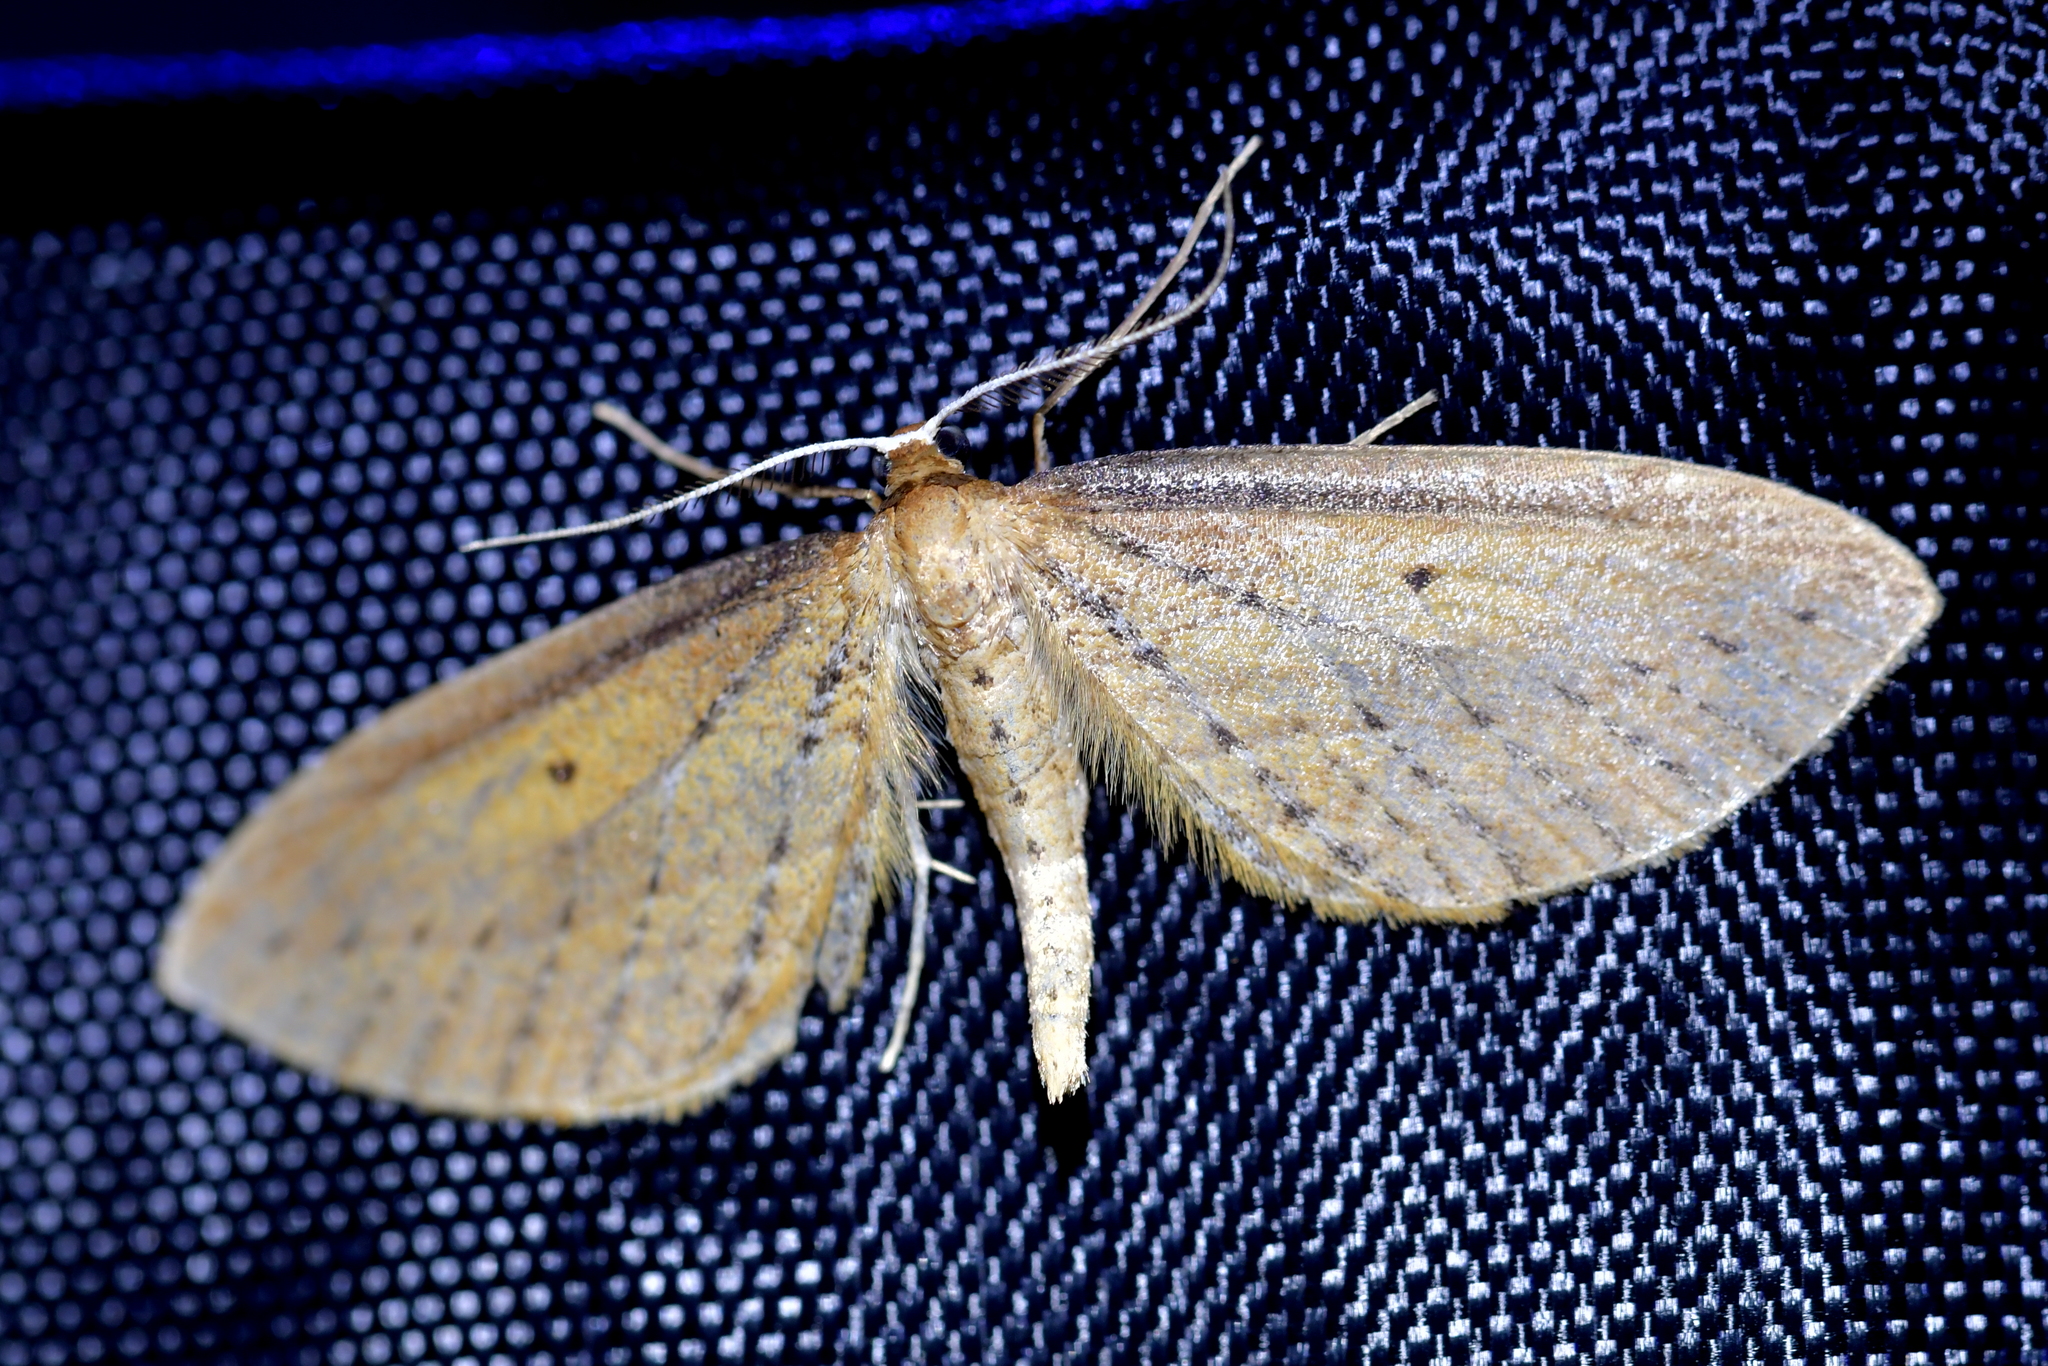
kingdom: Animalia
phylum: Arthropoda
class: Insecta
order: Lepidoptera
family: Geometridae
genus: Epiphryne
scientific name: Epiphryne charidema
